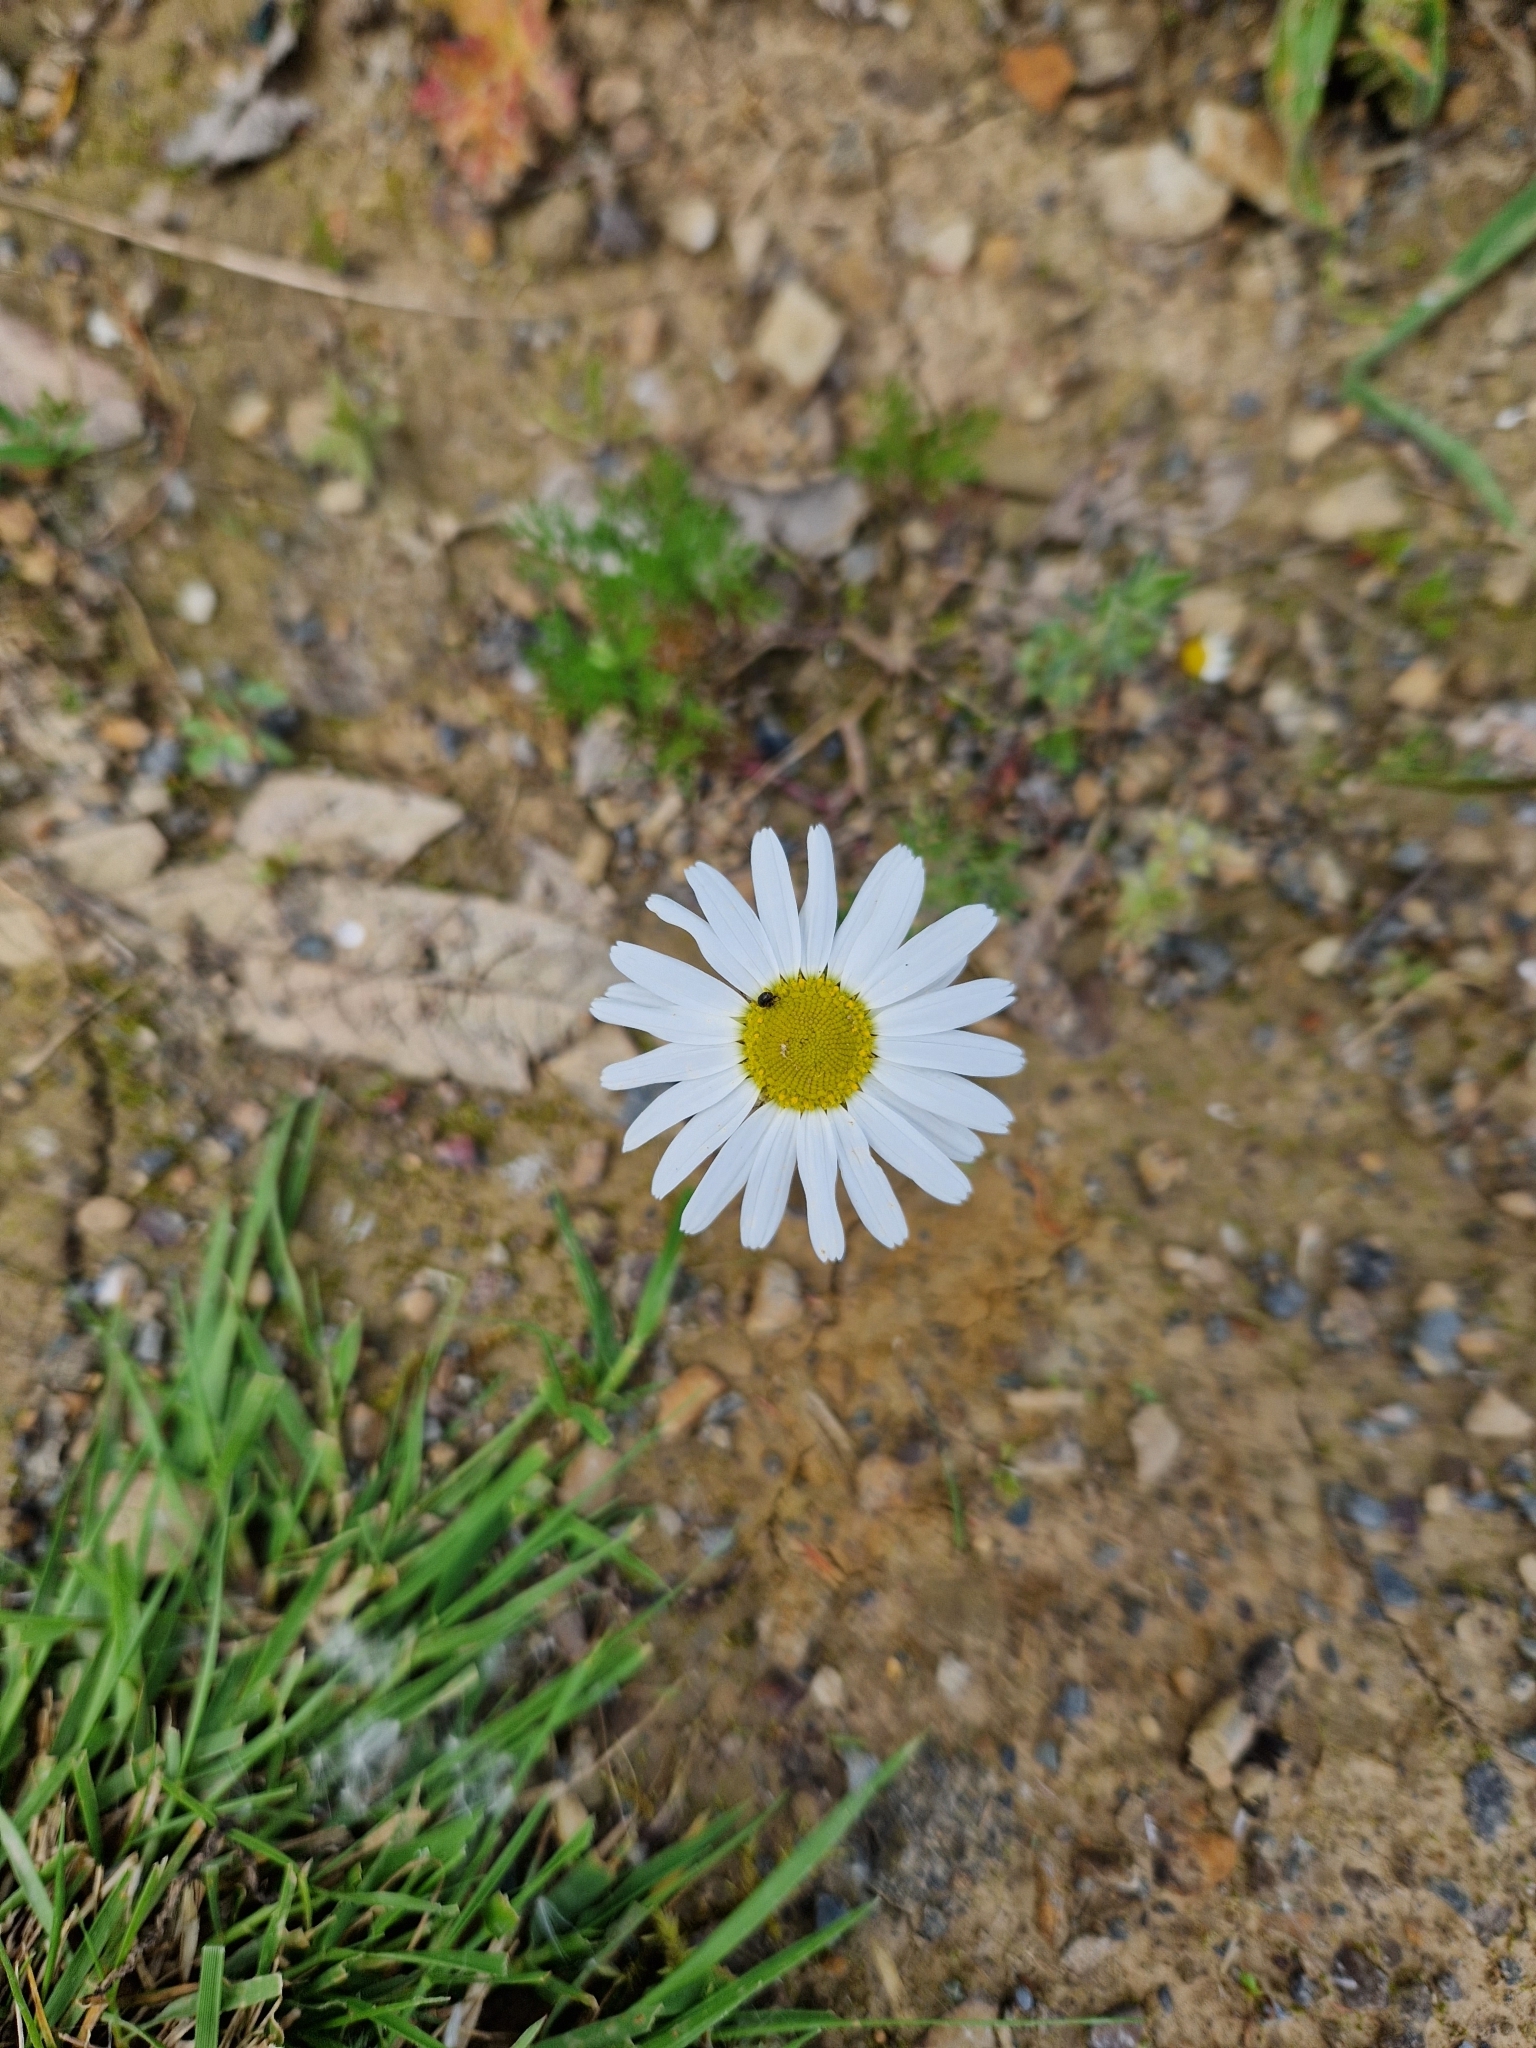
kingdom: Plantae
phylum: Tracheophyta
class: Magnoliopsida
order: Asterales
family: Asteraceae
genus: Leucanthemum
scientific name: Leucanthemum vulgare
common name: Oxeye daisy
